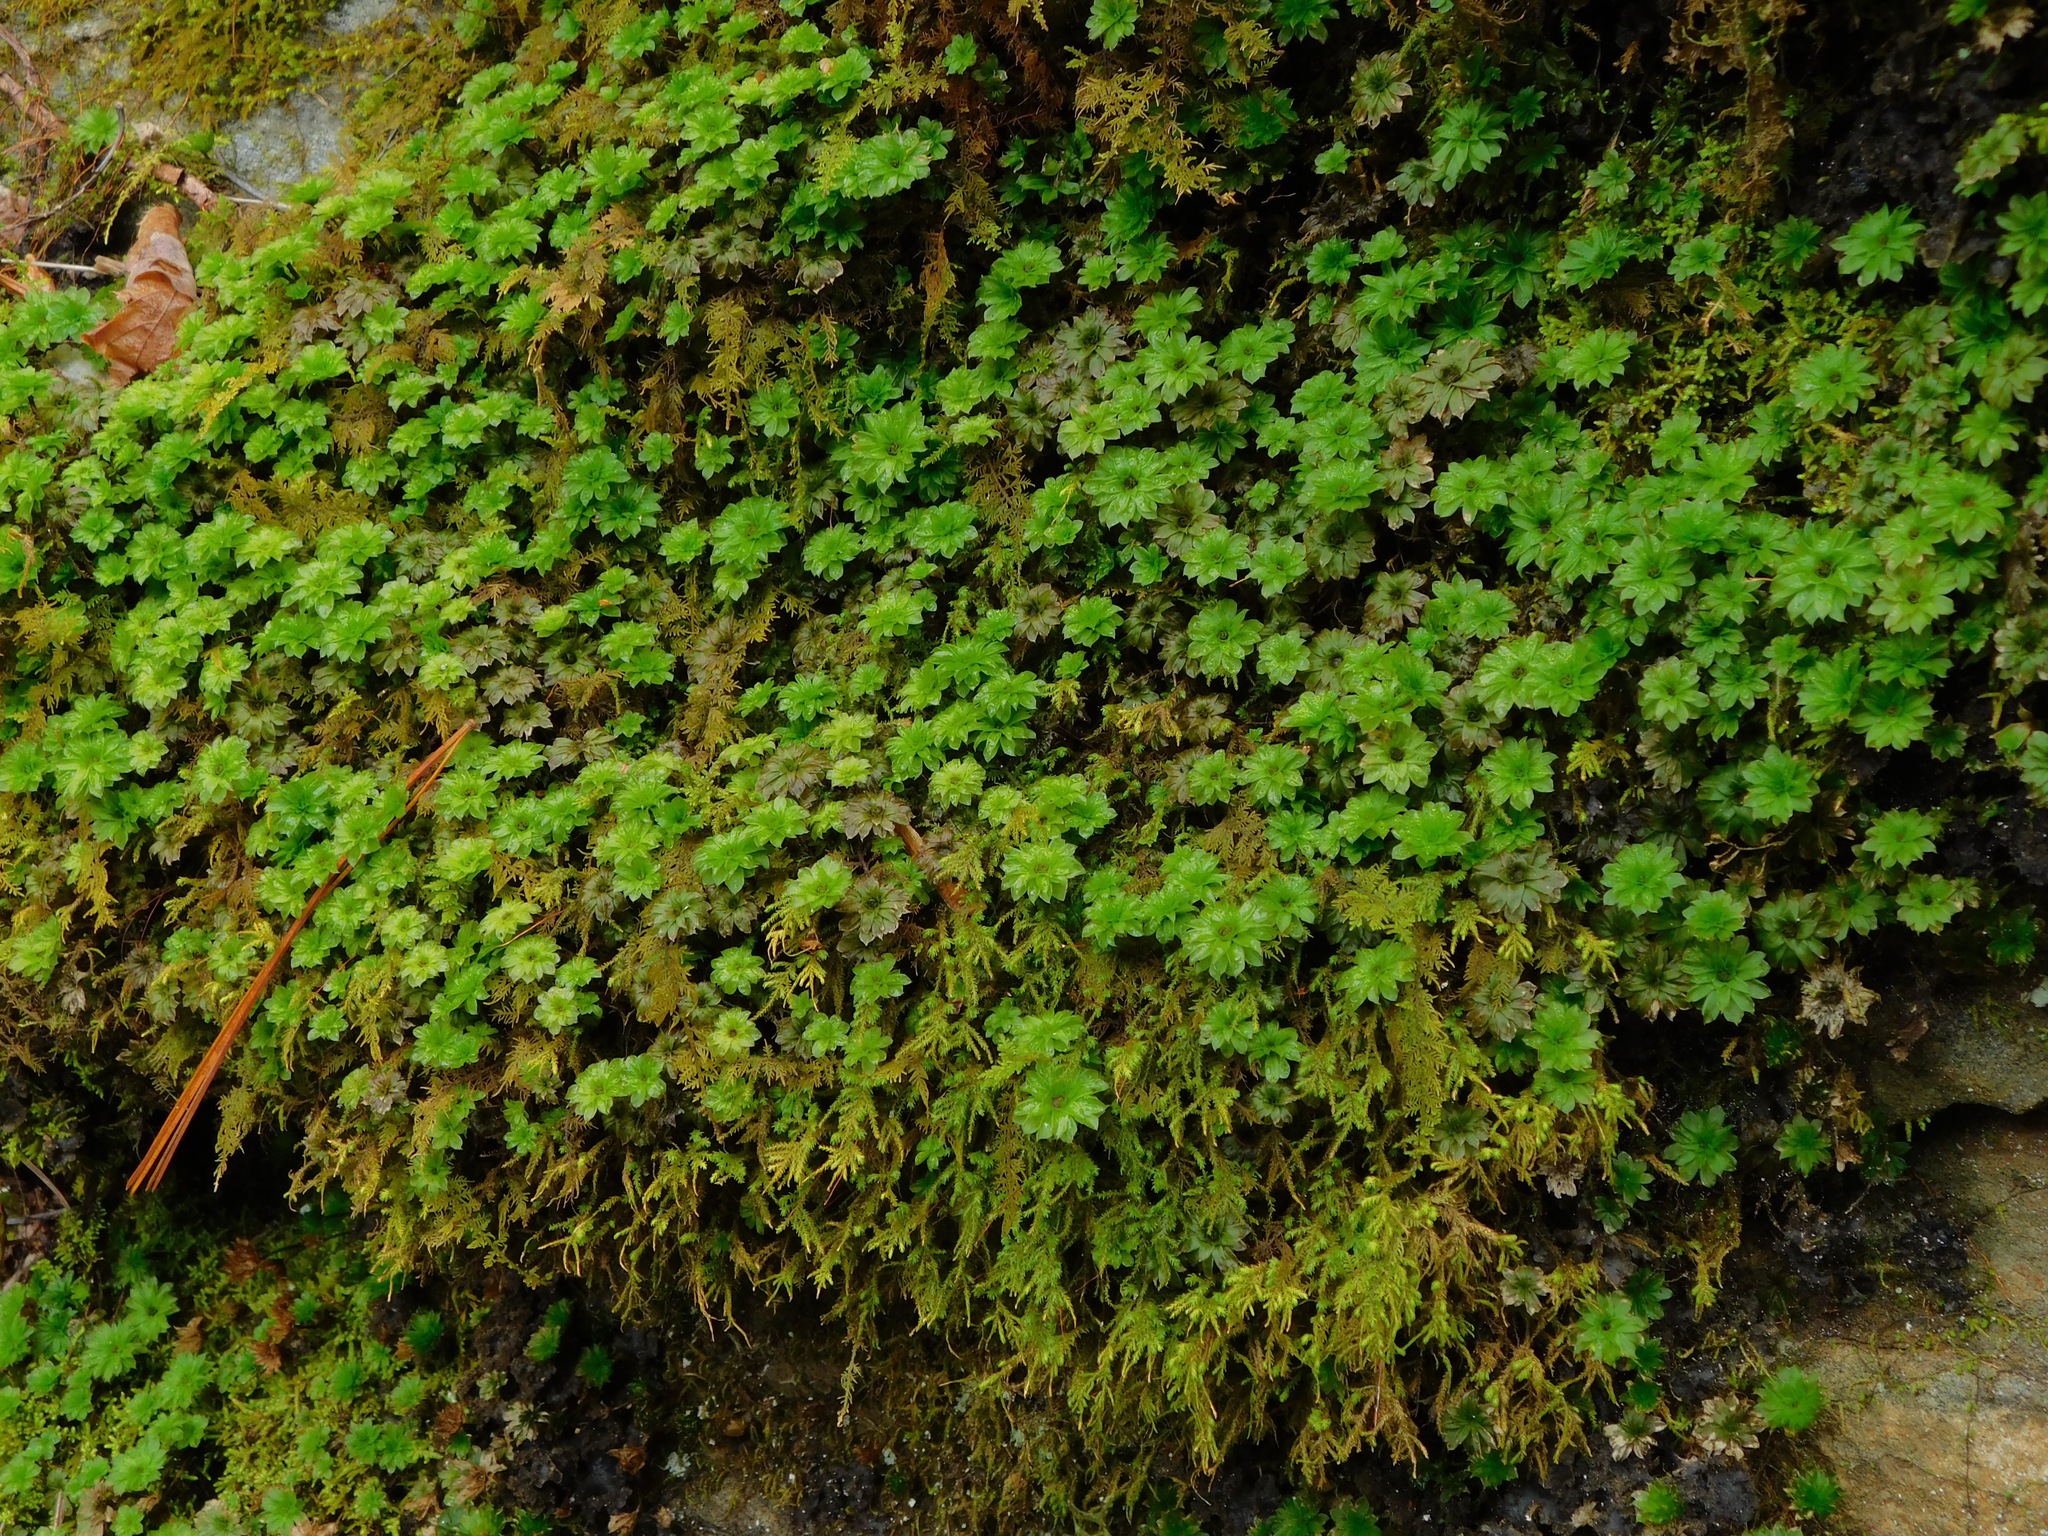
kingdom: Plantae
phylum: Bryophyta
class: Bryopsida
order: Bryales
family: Bryaceae
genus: Rhodobryum
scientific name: Rhodobryum ontariense
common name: Ontario rhodobryum moss
